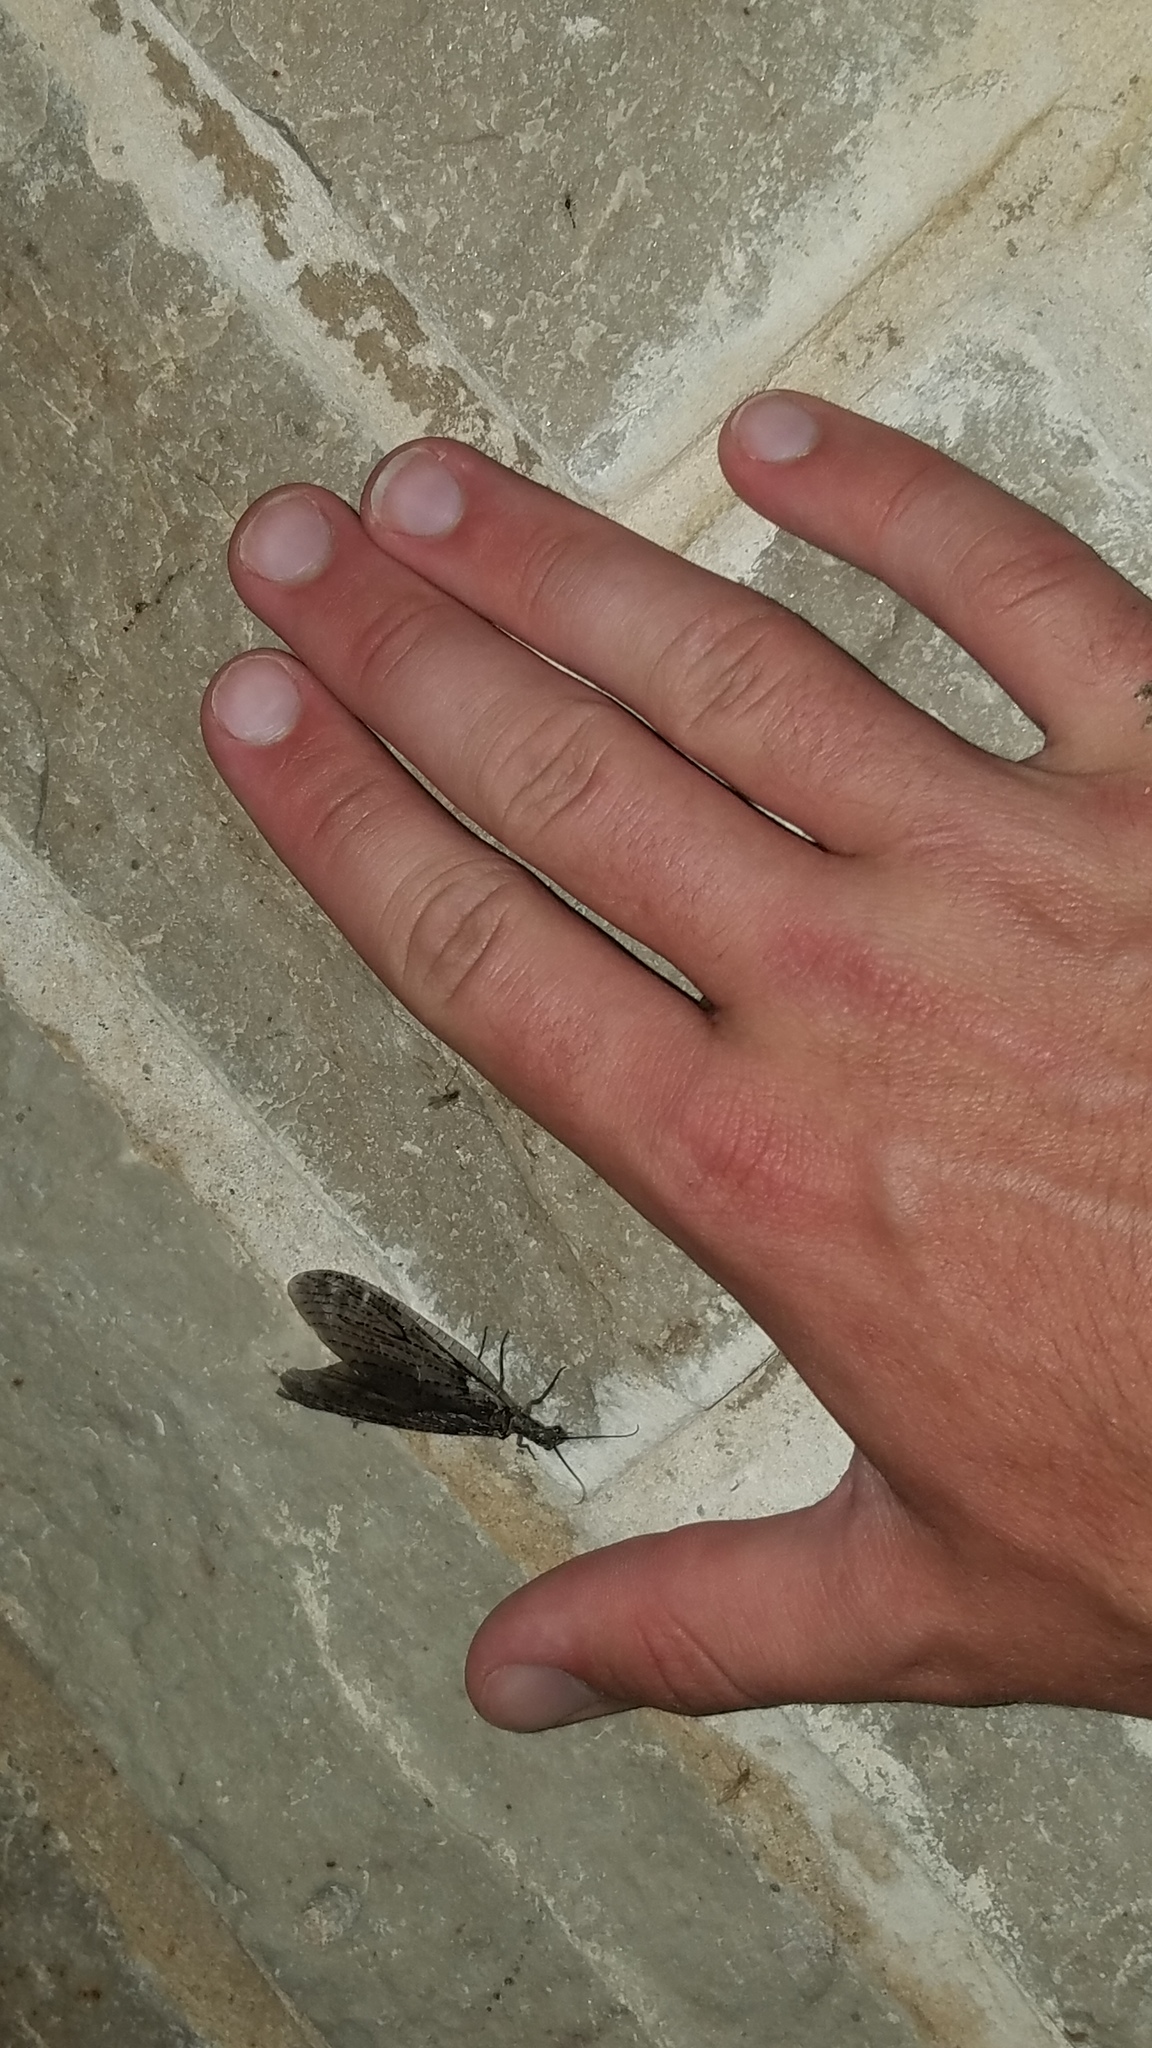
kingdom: Animalia
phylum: Arthropoda
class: Insecta
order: Megaloptera
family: Corydalidae
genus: Chauliodes
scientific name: Chauliodes rastricornis
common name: Spring fishfly
